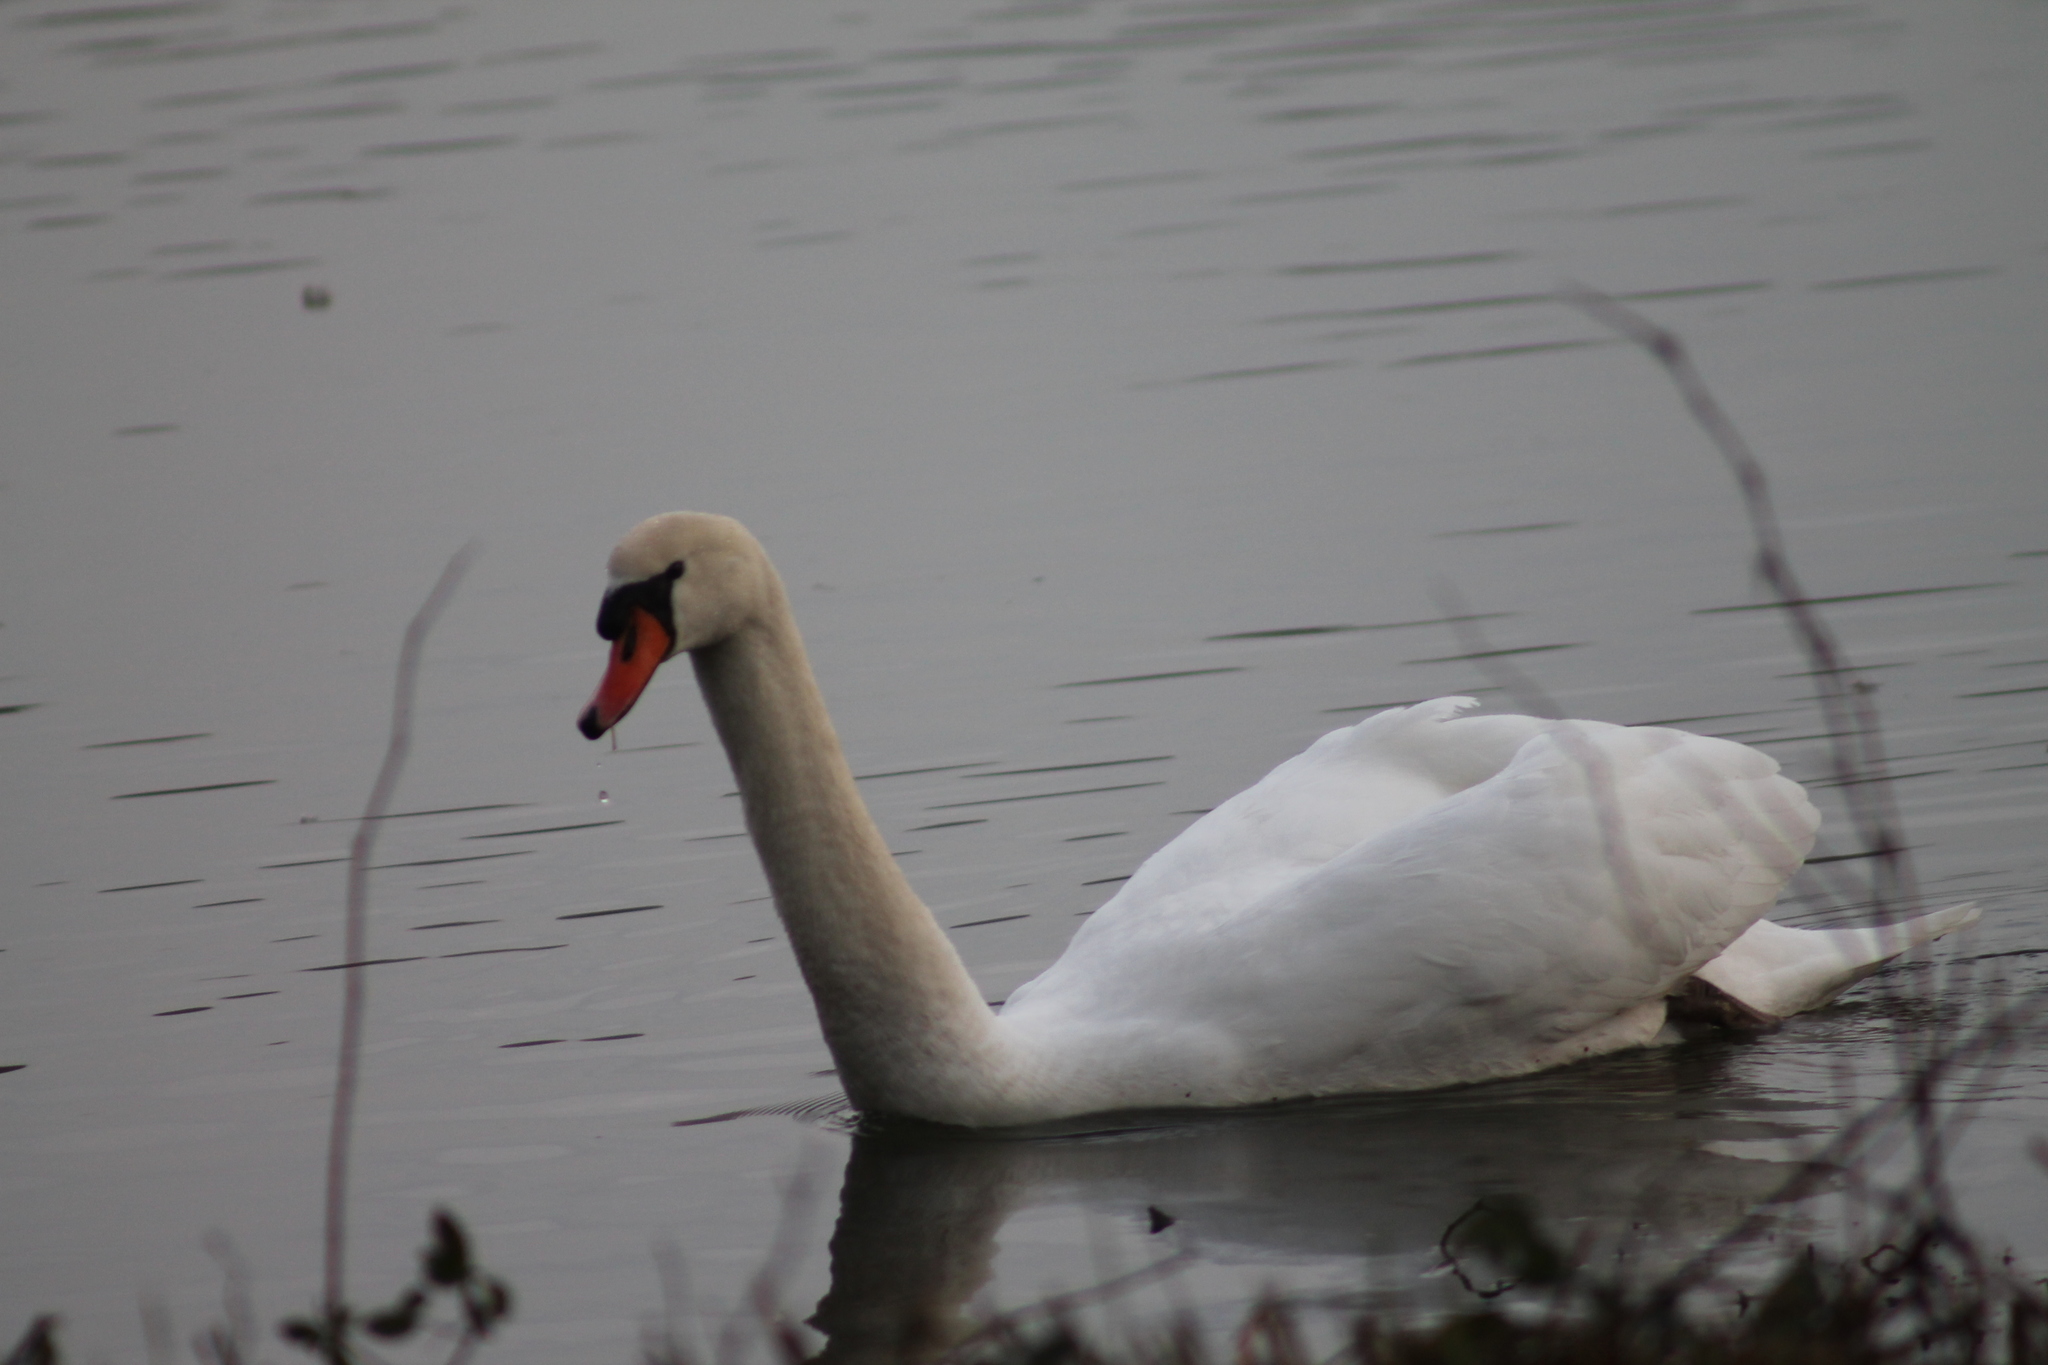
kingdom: Animalia
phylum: Chordata
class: Aves
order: Anseriformes
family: Anatidae
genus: Cygnus
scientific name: Cygnus olor
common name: Mute swan
